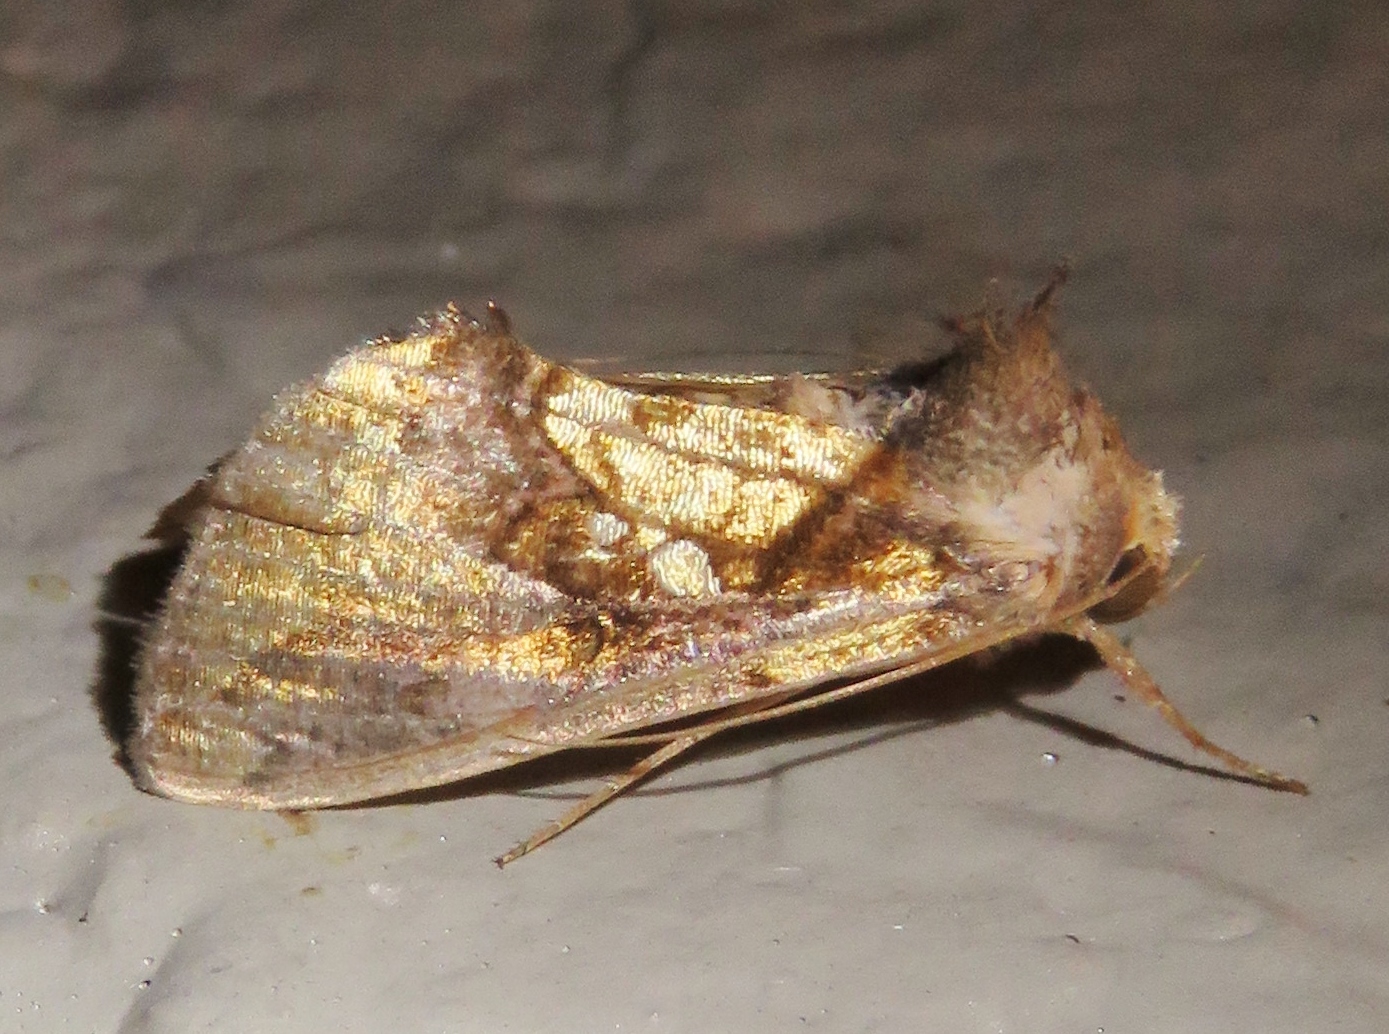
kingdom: Animalia
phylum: Arthropoda
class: Insecta
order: Lepidoptera
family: Noctuidae
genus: Argyrogramma
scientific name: Argyrogramma verruca
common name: Golden looper moth
